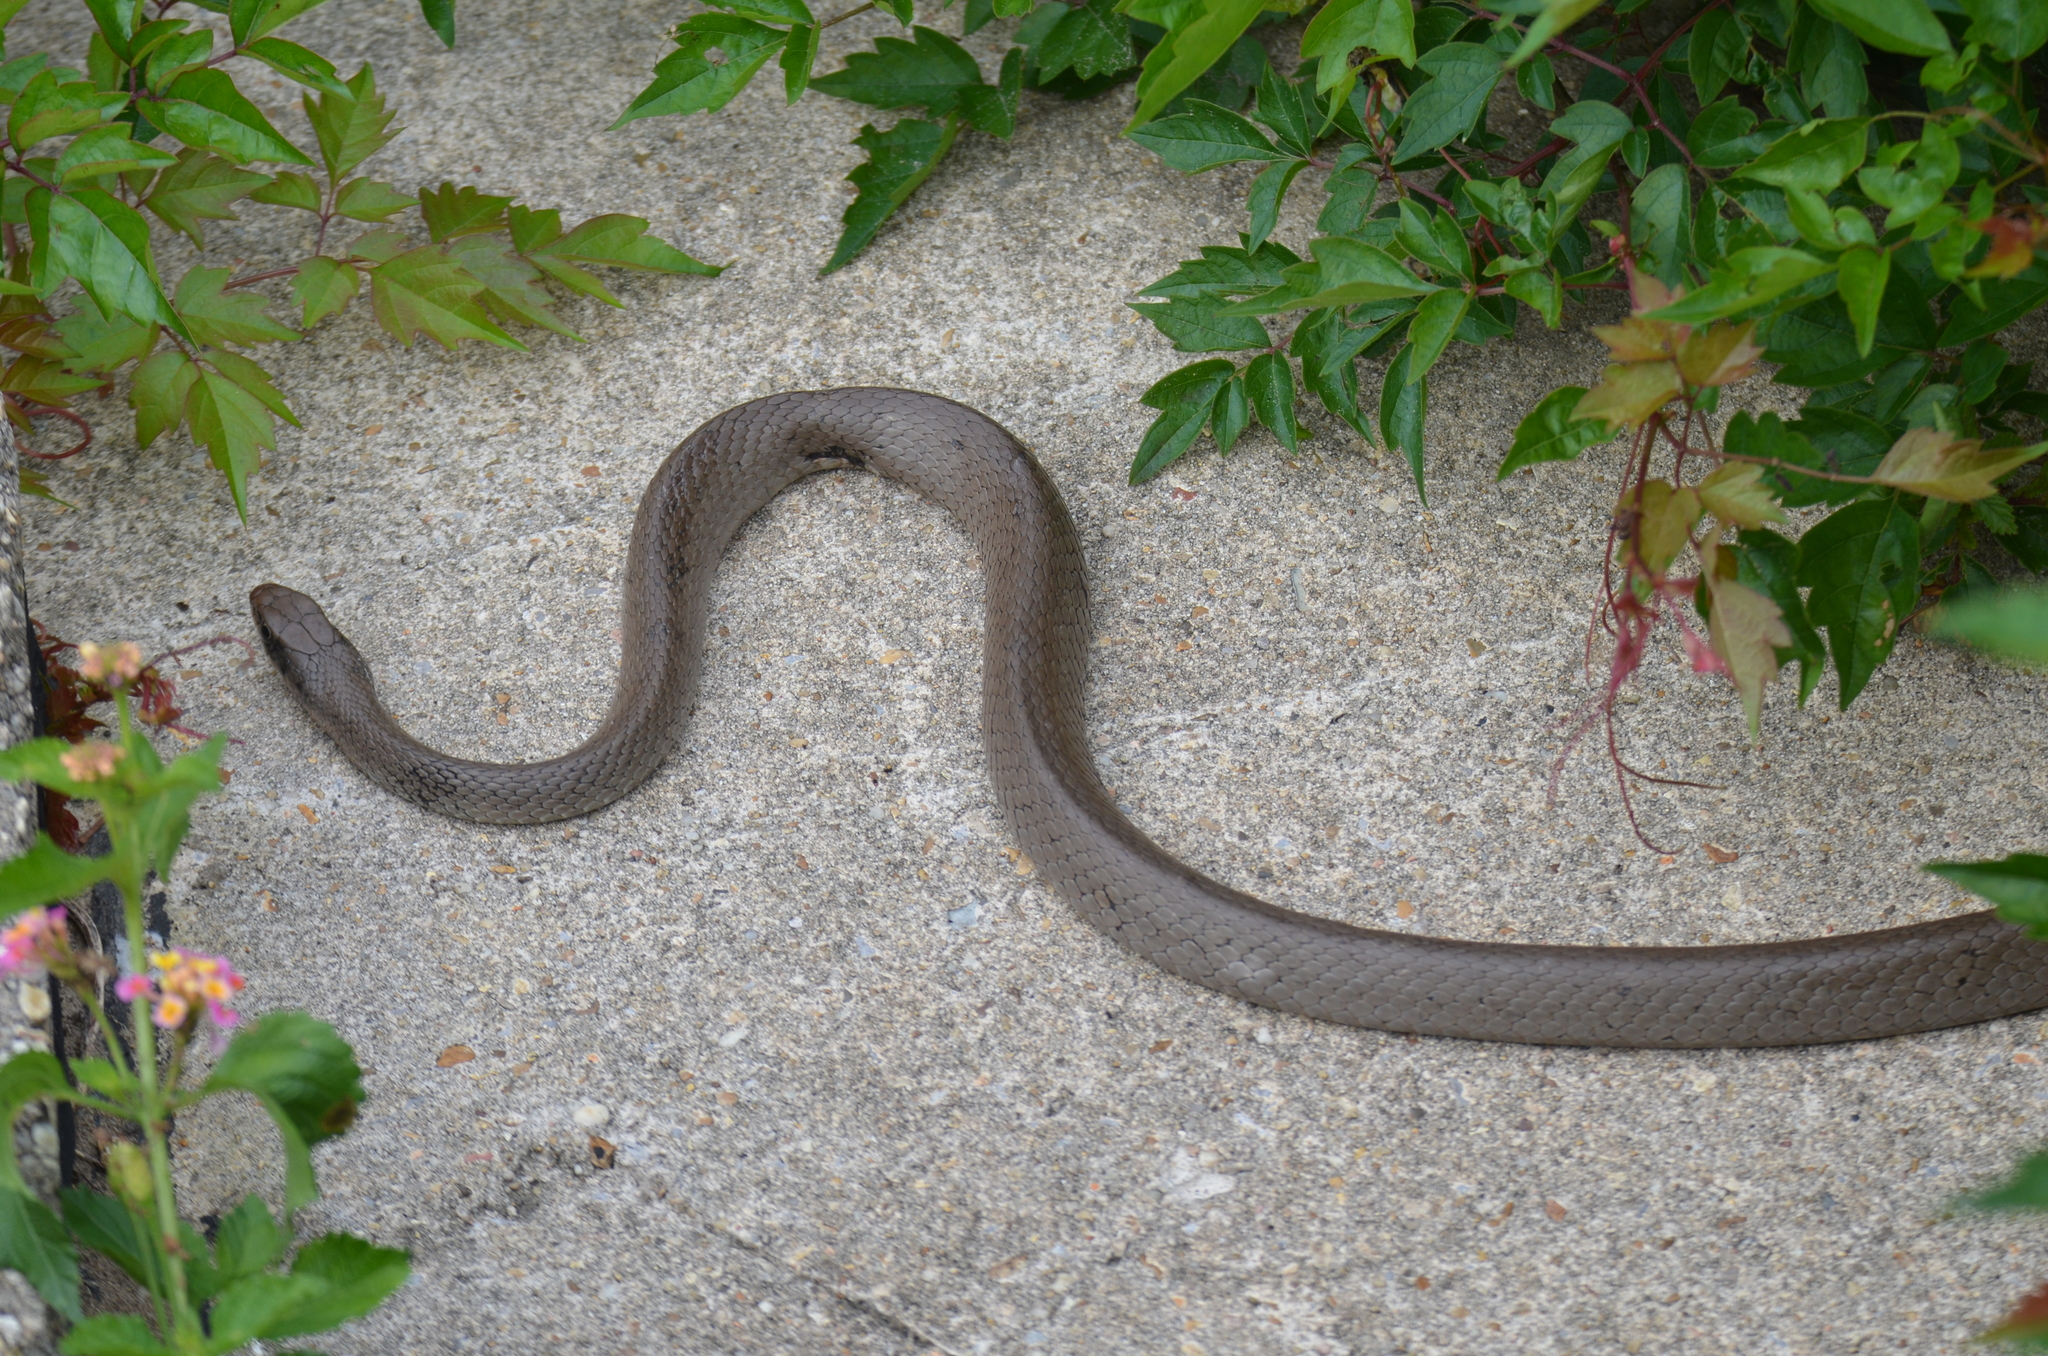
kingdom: Animalia
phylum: Chordata
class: Squamata
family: Colubridae
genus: Coluber
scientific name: Coluber constrictor
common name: Eastern racer
